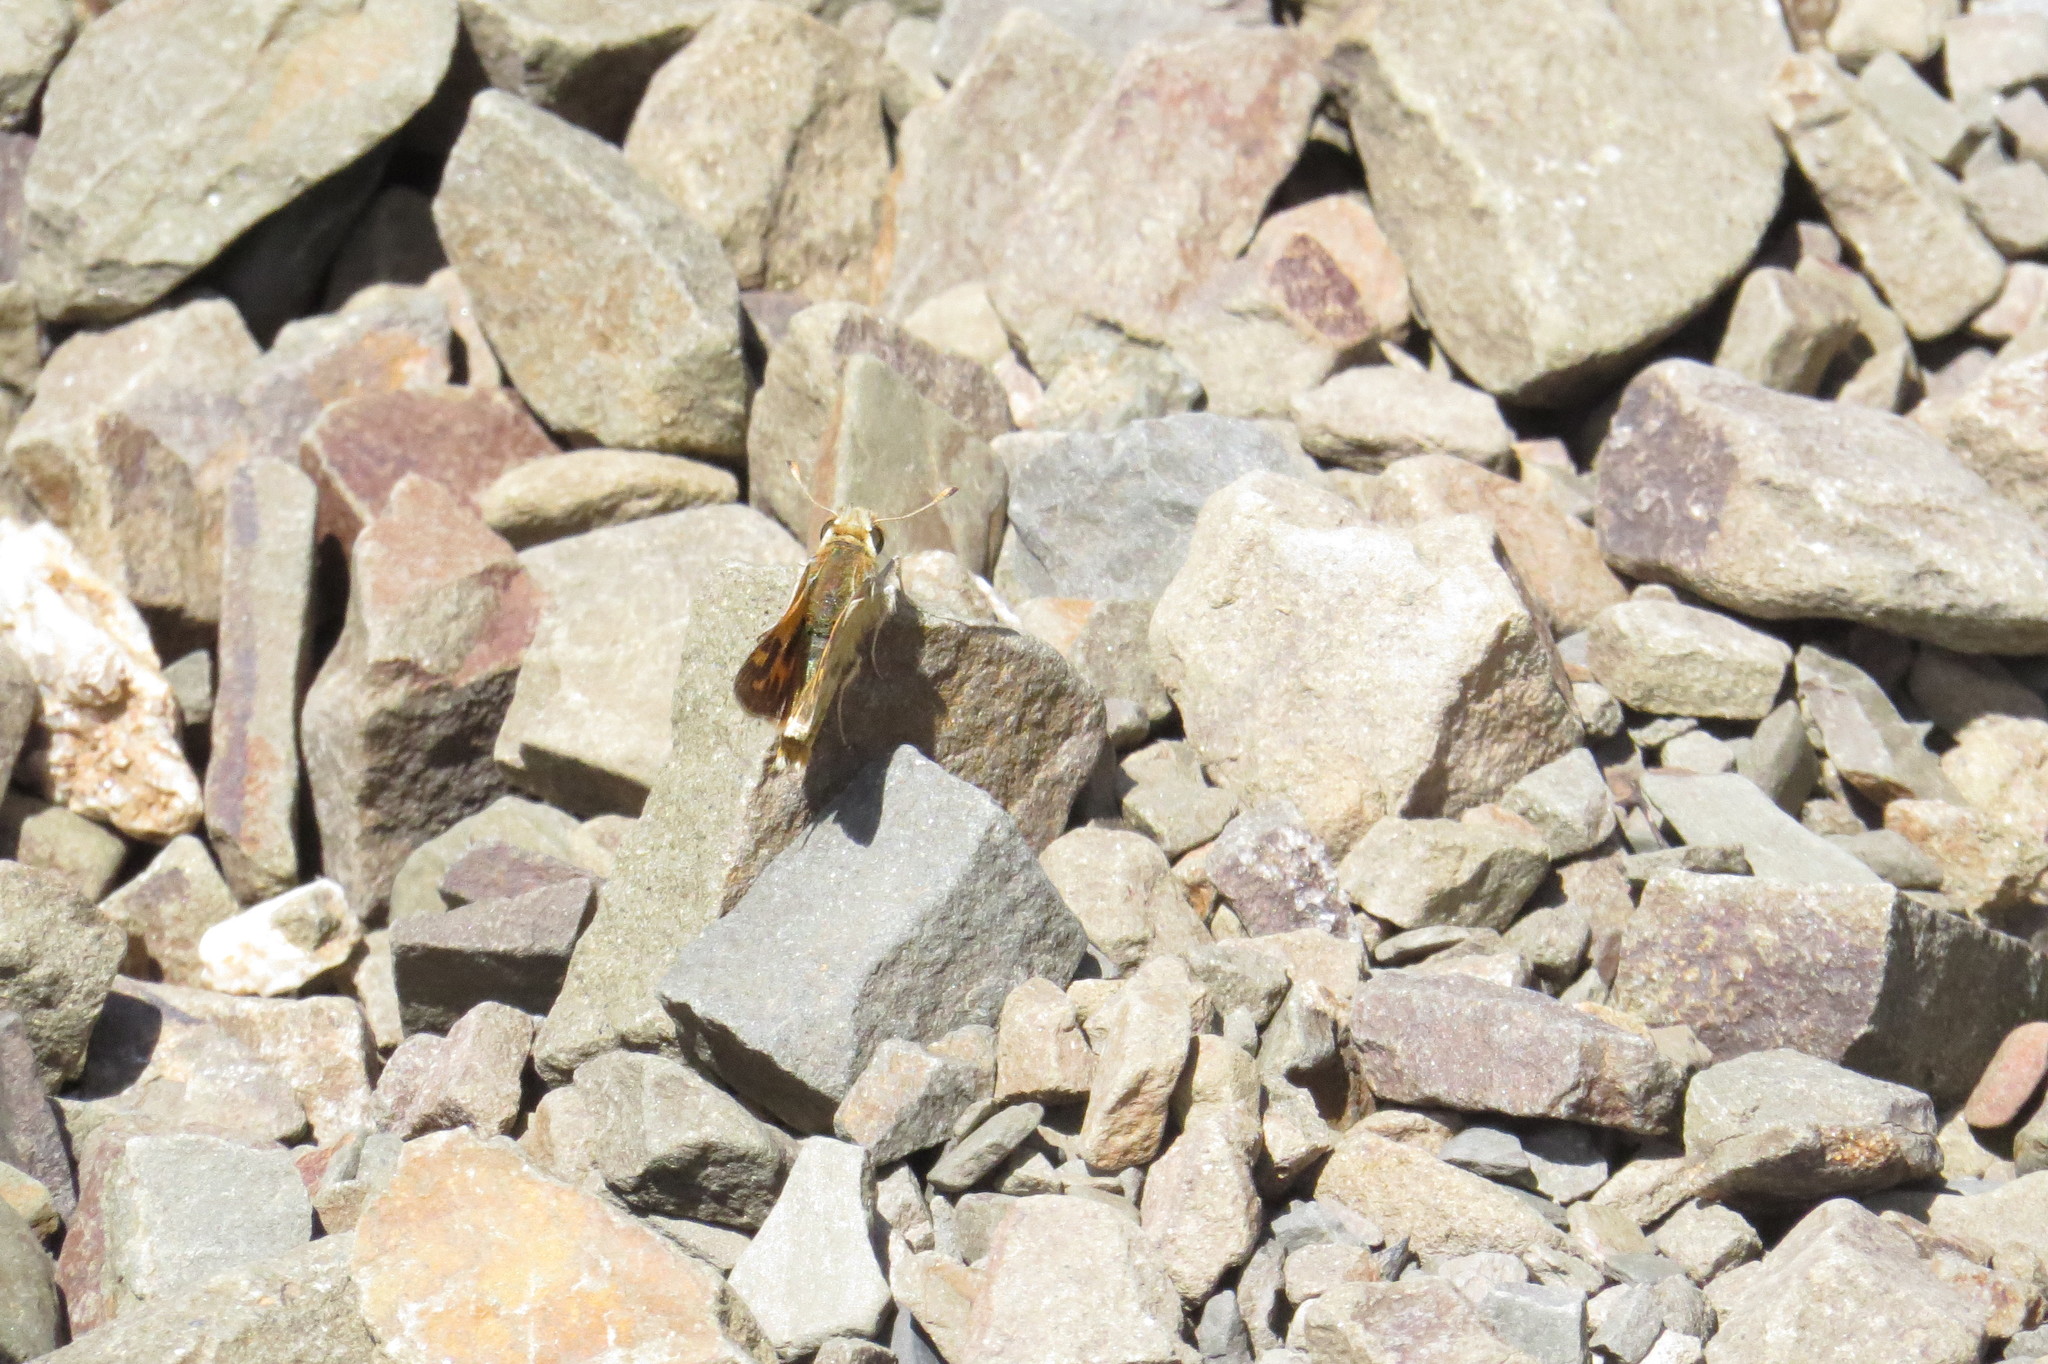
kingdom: Animalia
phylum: Arthropoda
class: Insecta
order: Lepidoptera
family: Hesperiidae
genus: Hylephila
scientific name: Hylephila ancora
